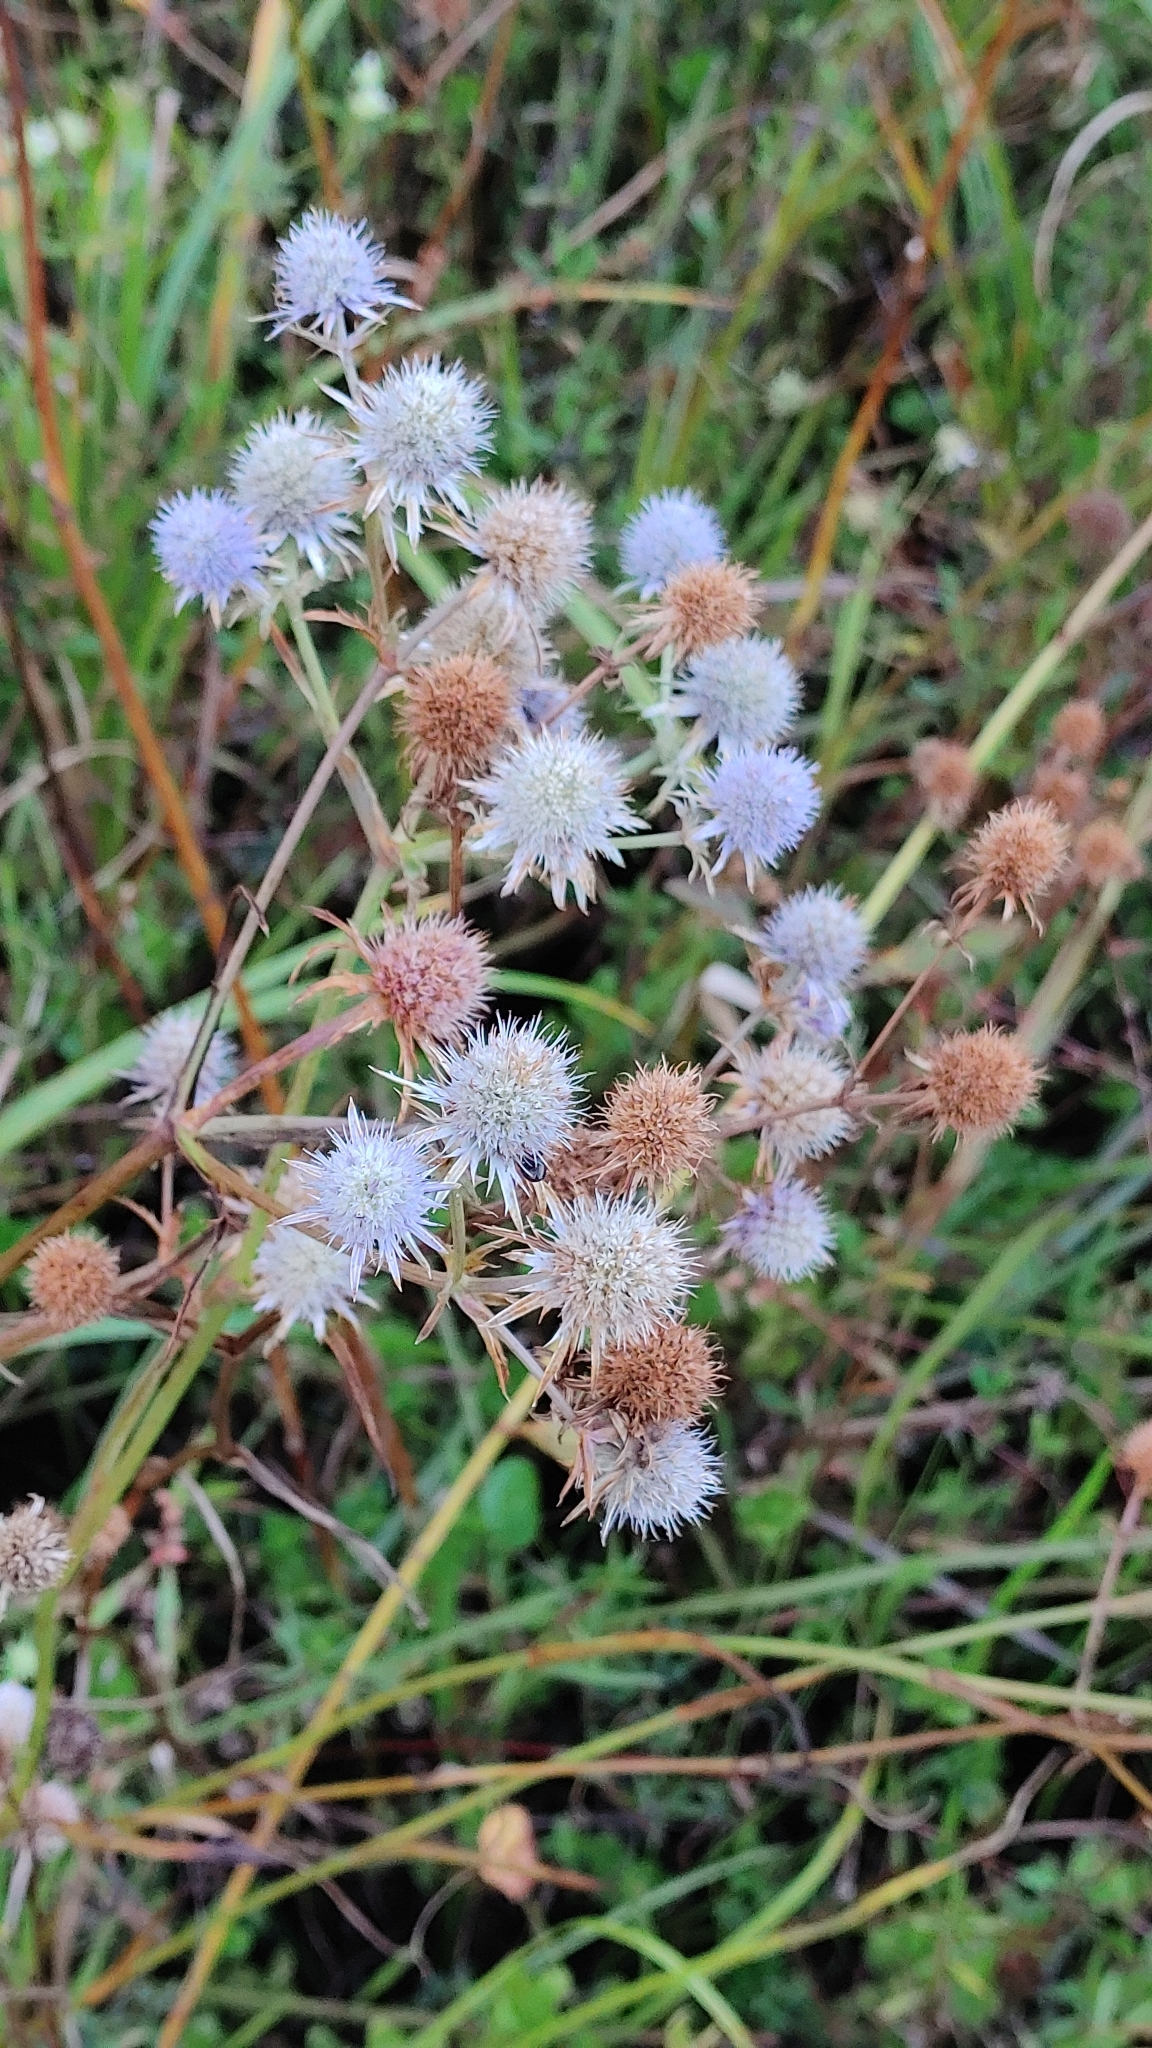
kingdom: Plantae
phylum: Tracheophyta
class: Magnoliopsida
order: Apiales
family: Apiaceae
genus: Eryngium
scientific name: Eryngium aquaticum
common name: Water eryngo
